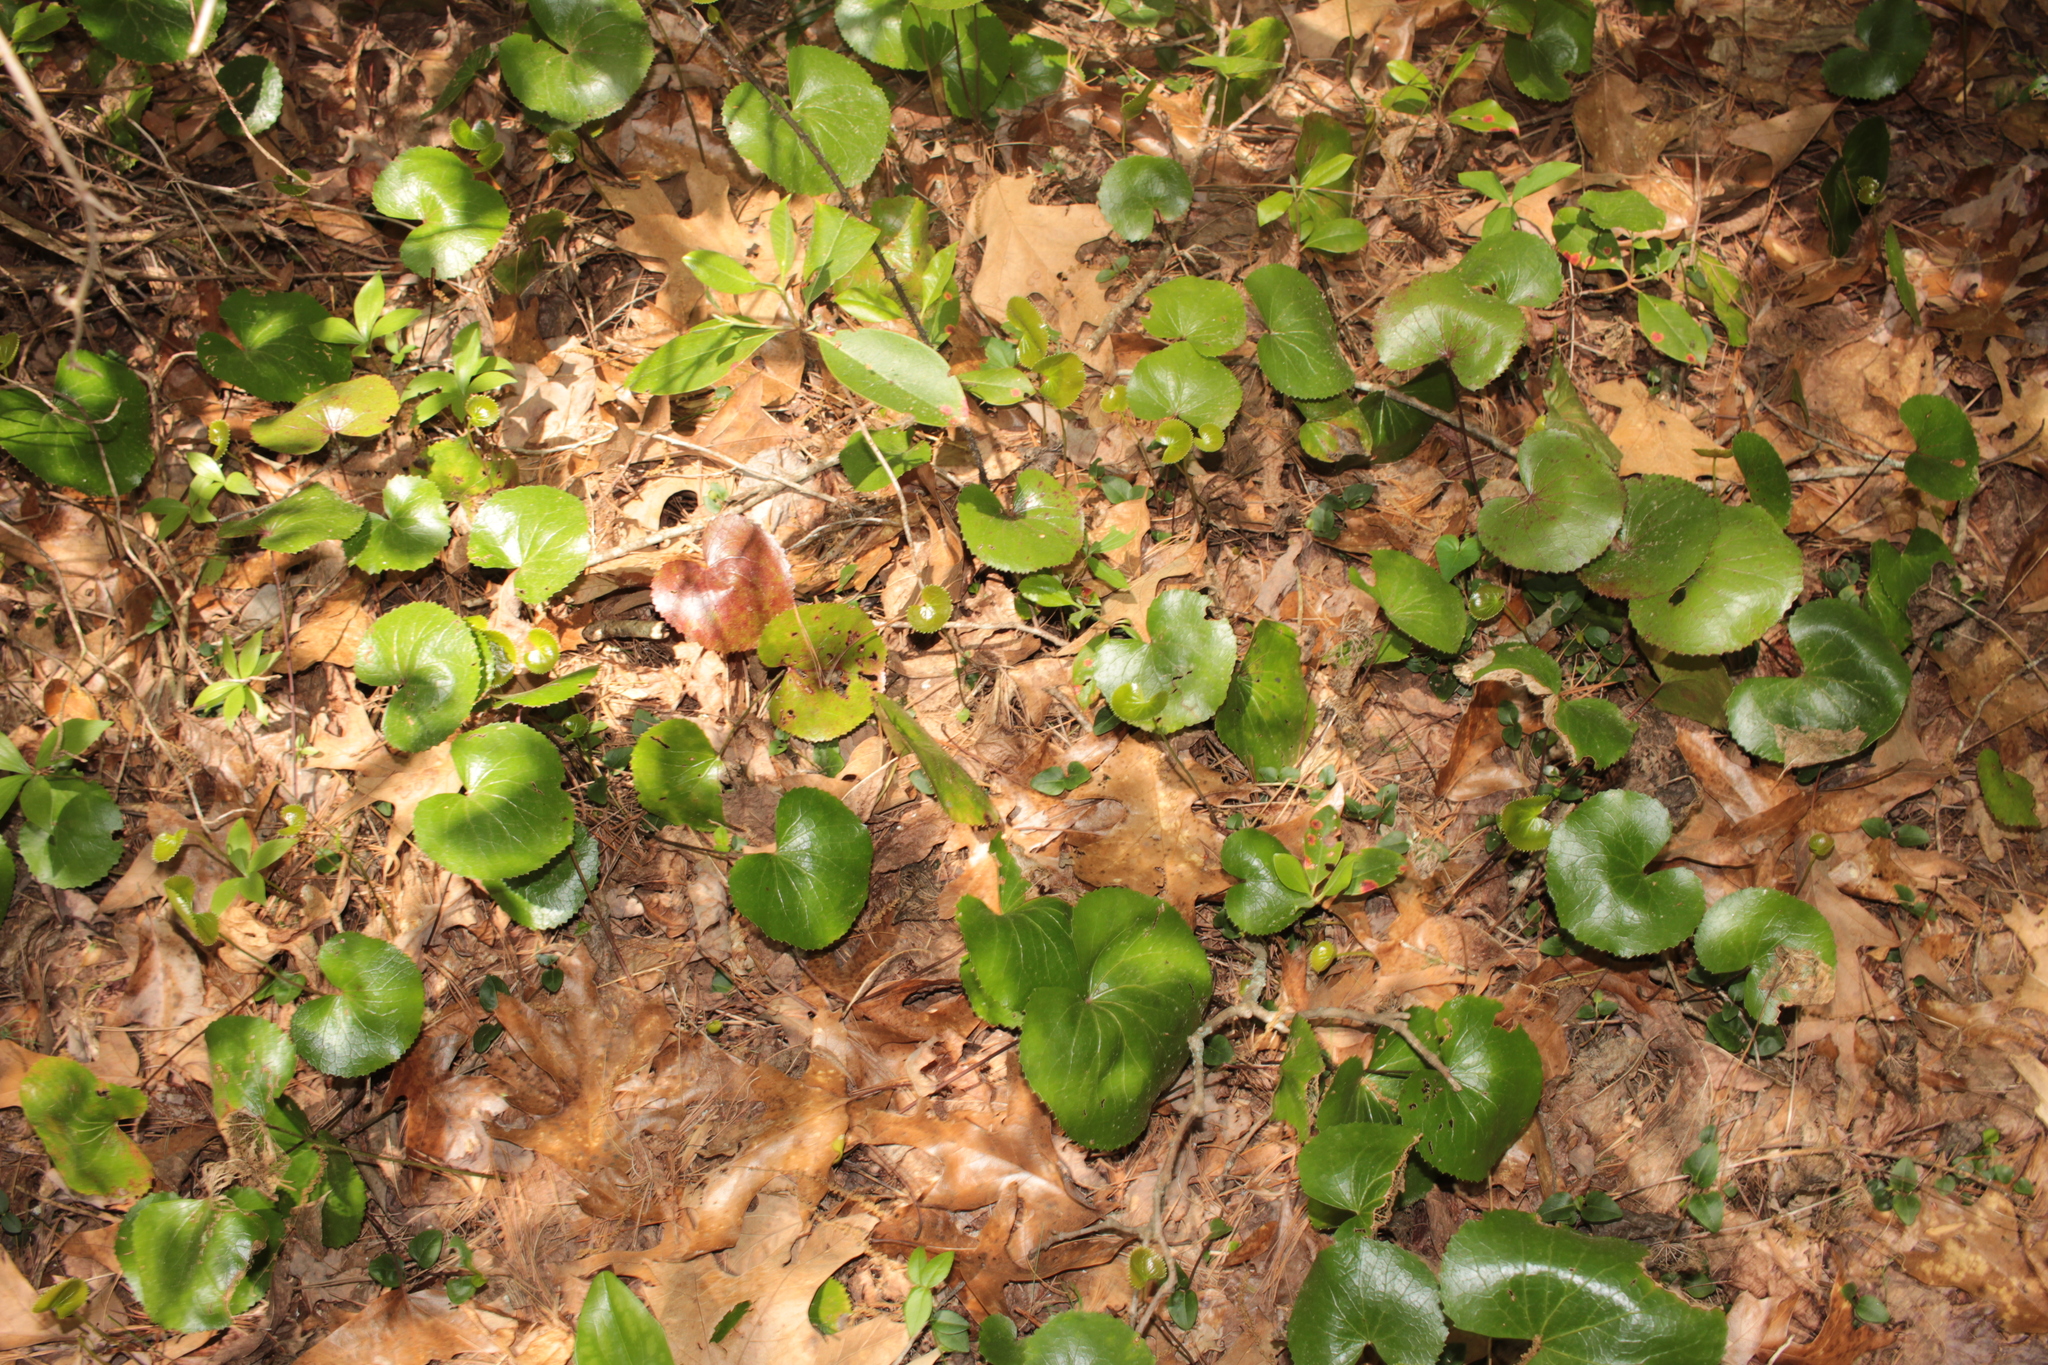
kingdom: Plantae
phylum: Tracheophyta
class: Magnoliopsida
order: Ericales
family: Diapensiaceae
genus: Galax
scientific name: Galax urceolata
